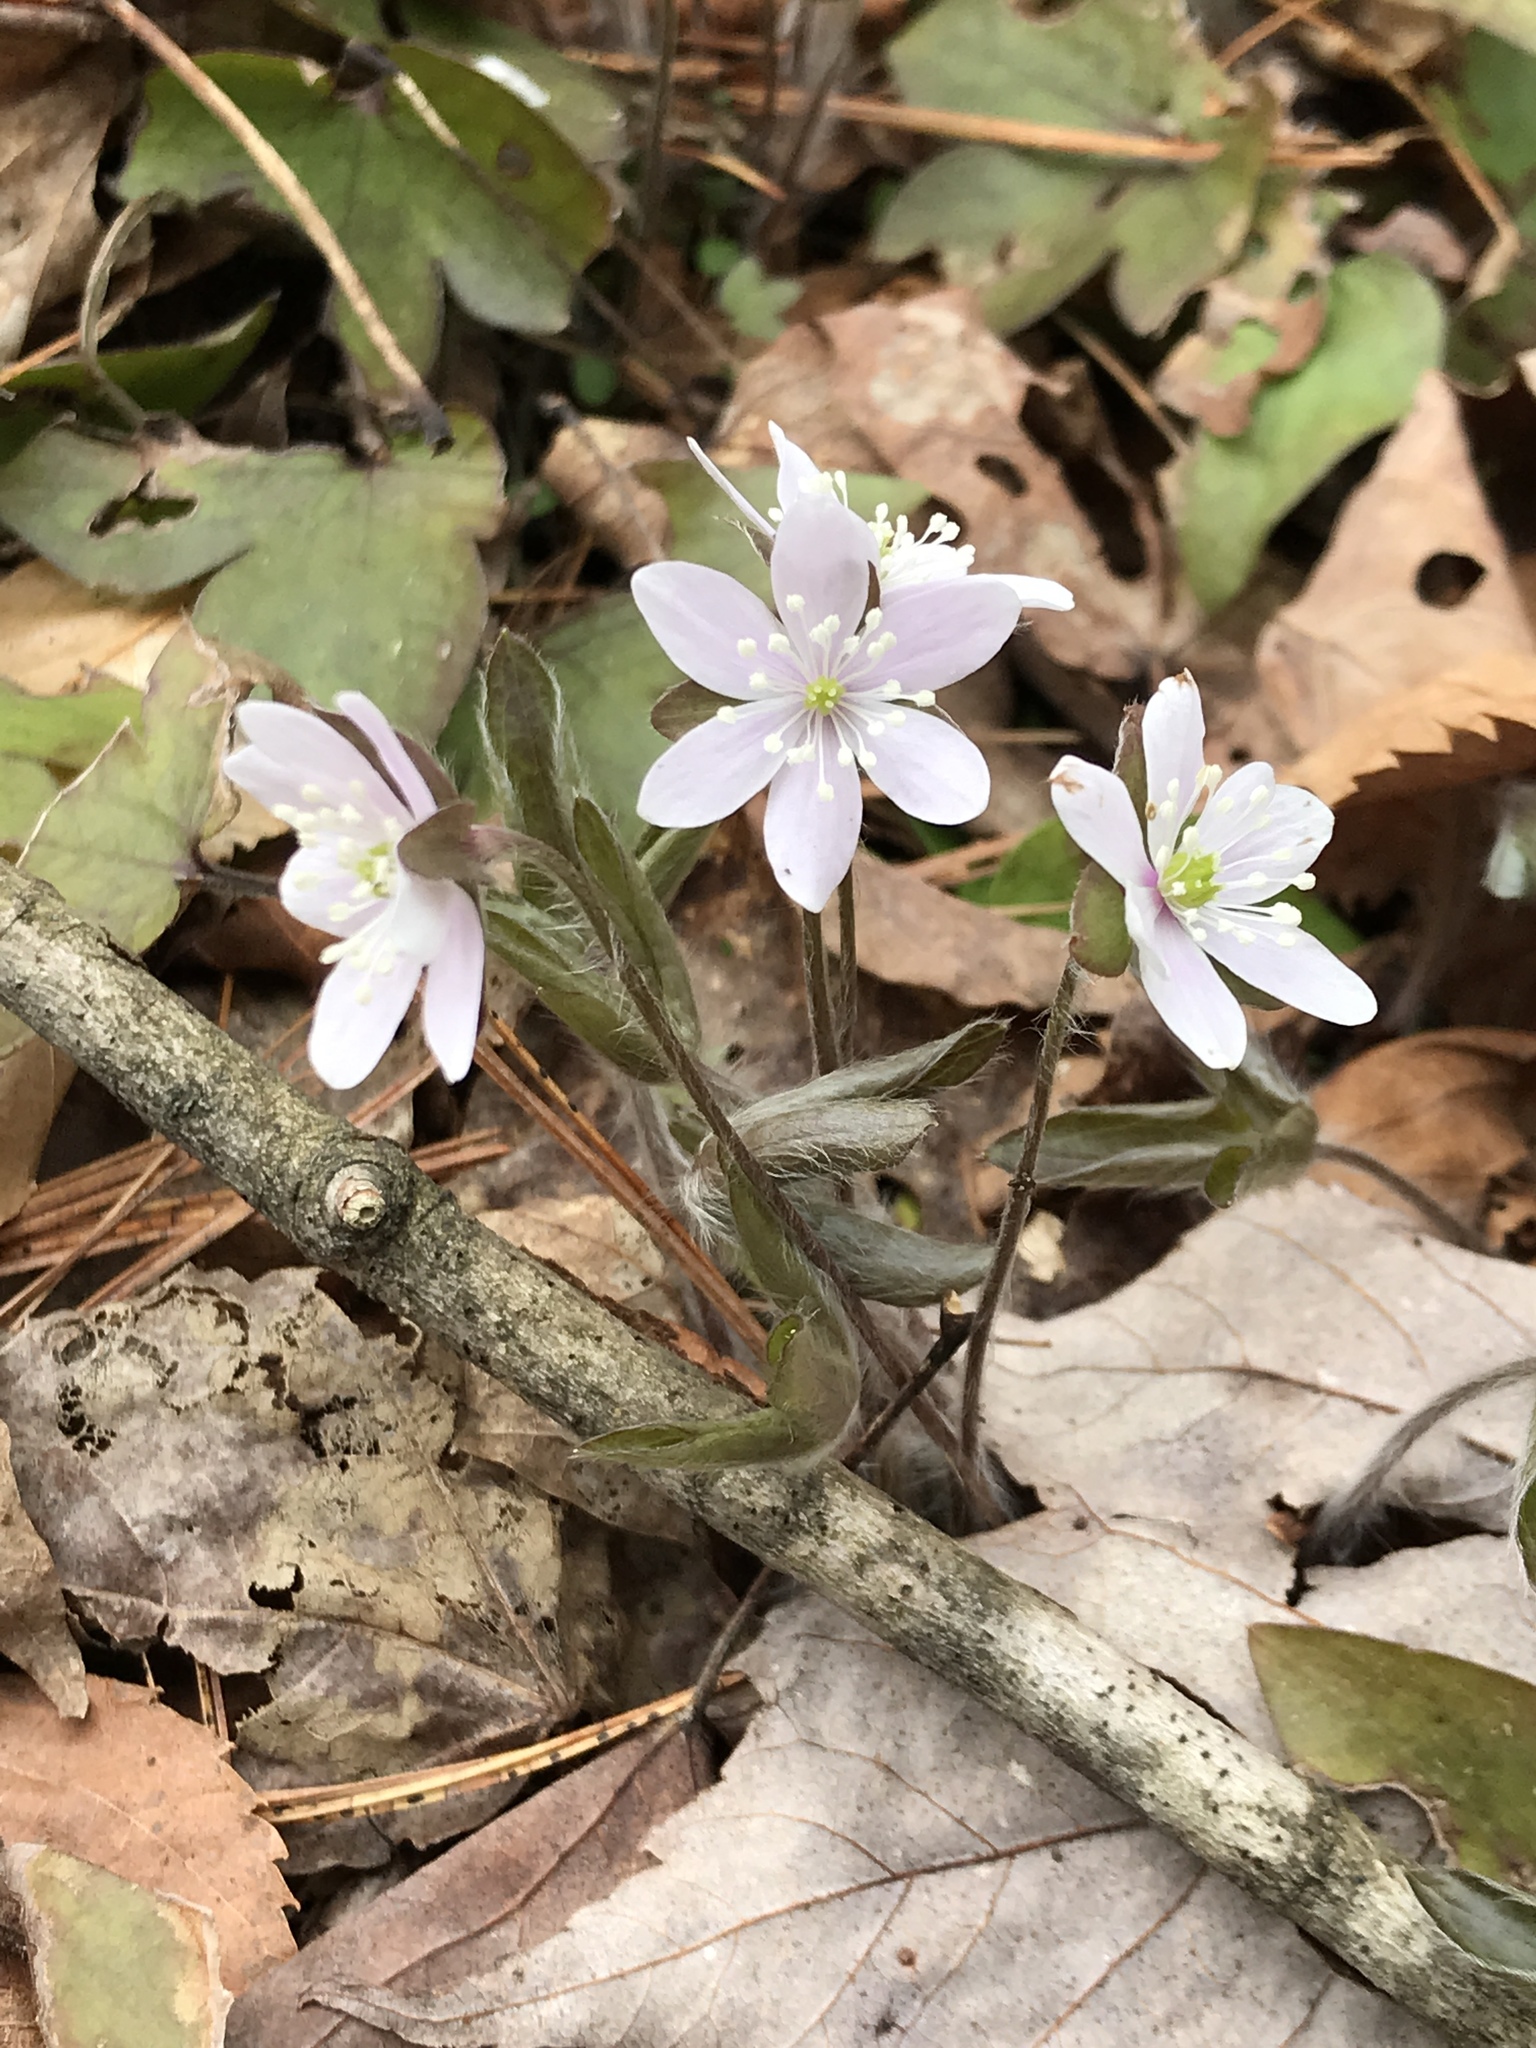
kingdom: Plantae
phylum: Tracheophyta
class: Magnoliopsida
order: Ranunculales
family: Ranunculaceae
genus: Hepatica
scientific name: Hepatica acutiloba
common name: Sharp-lobed hepatica
